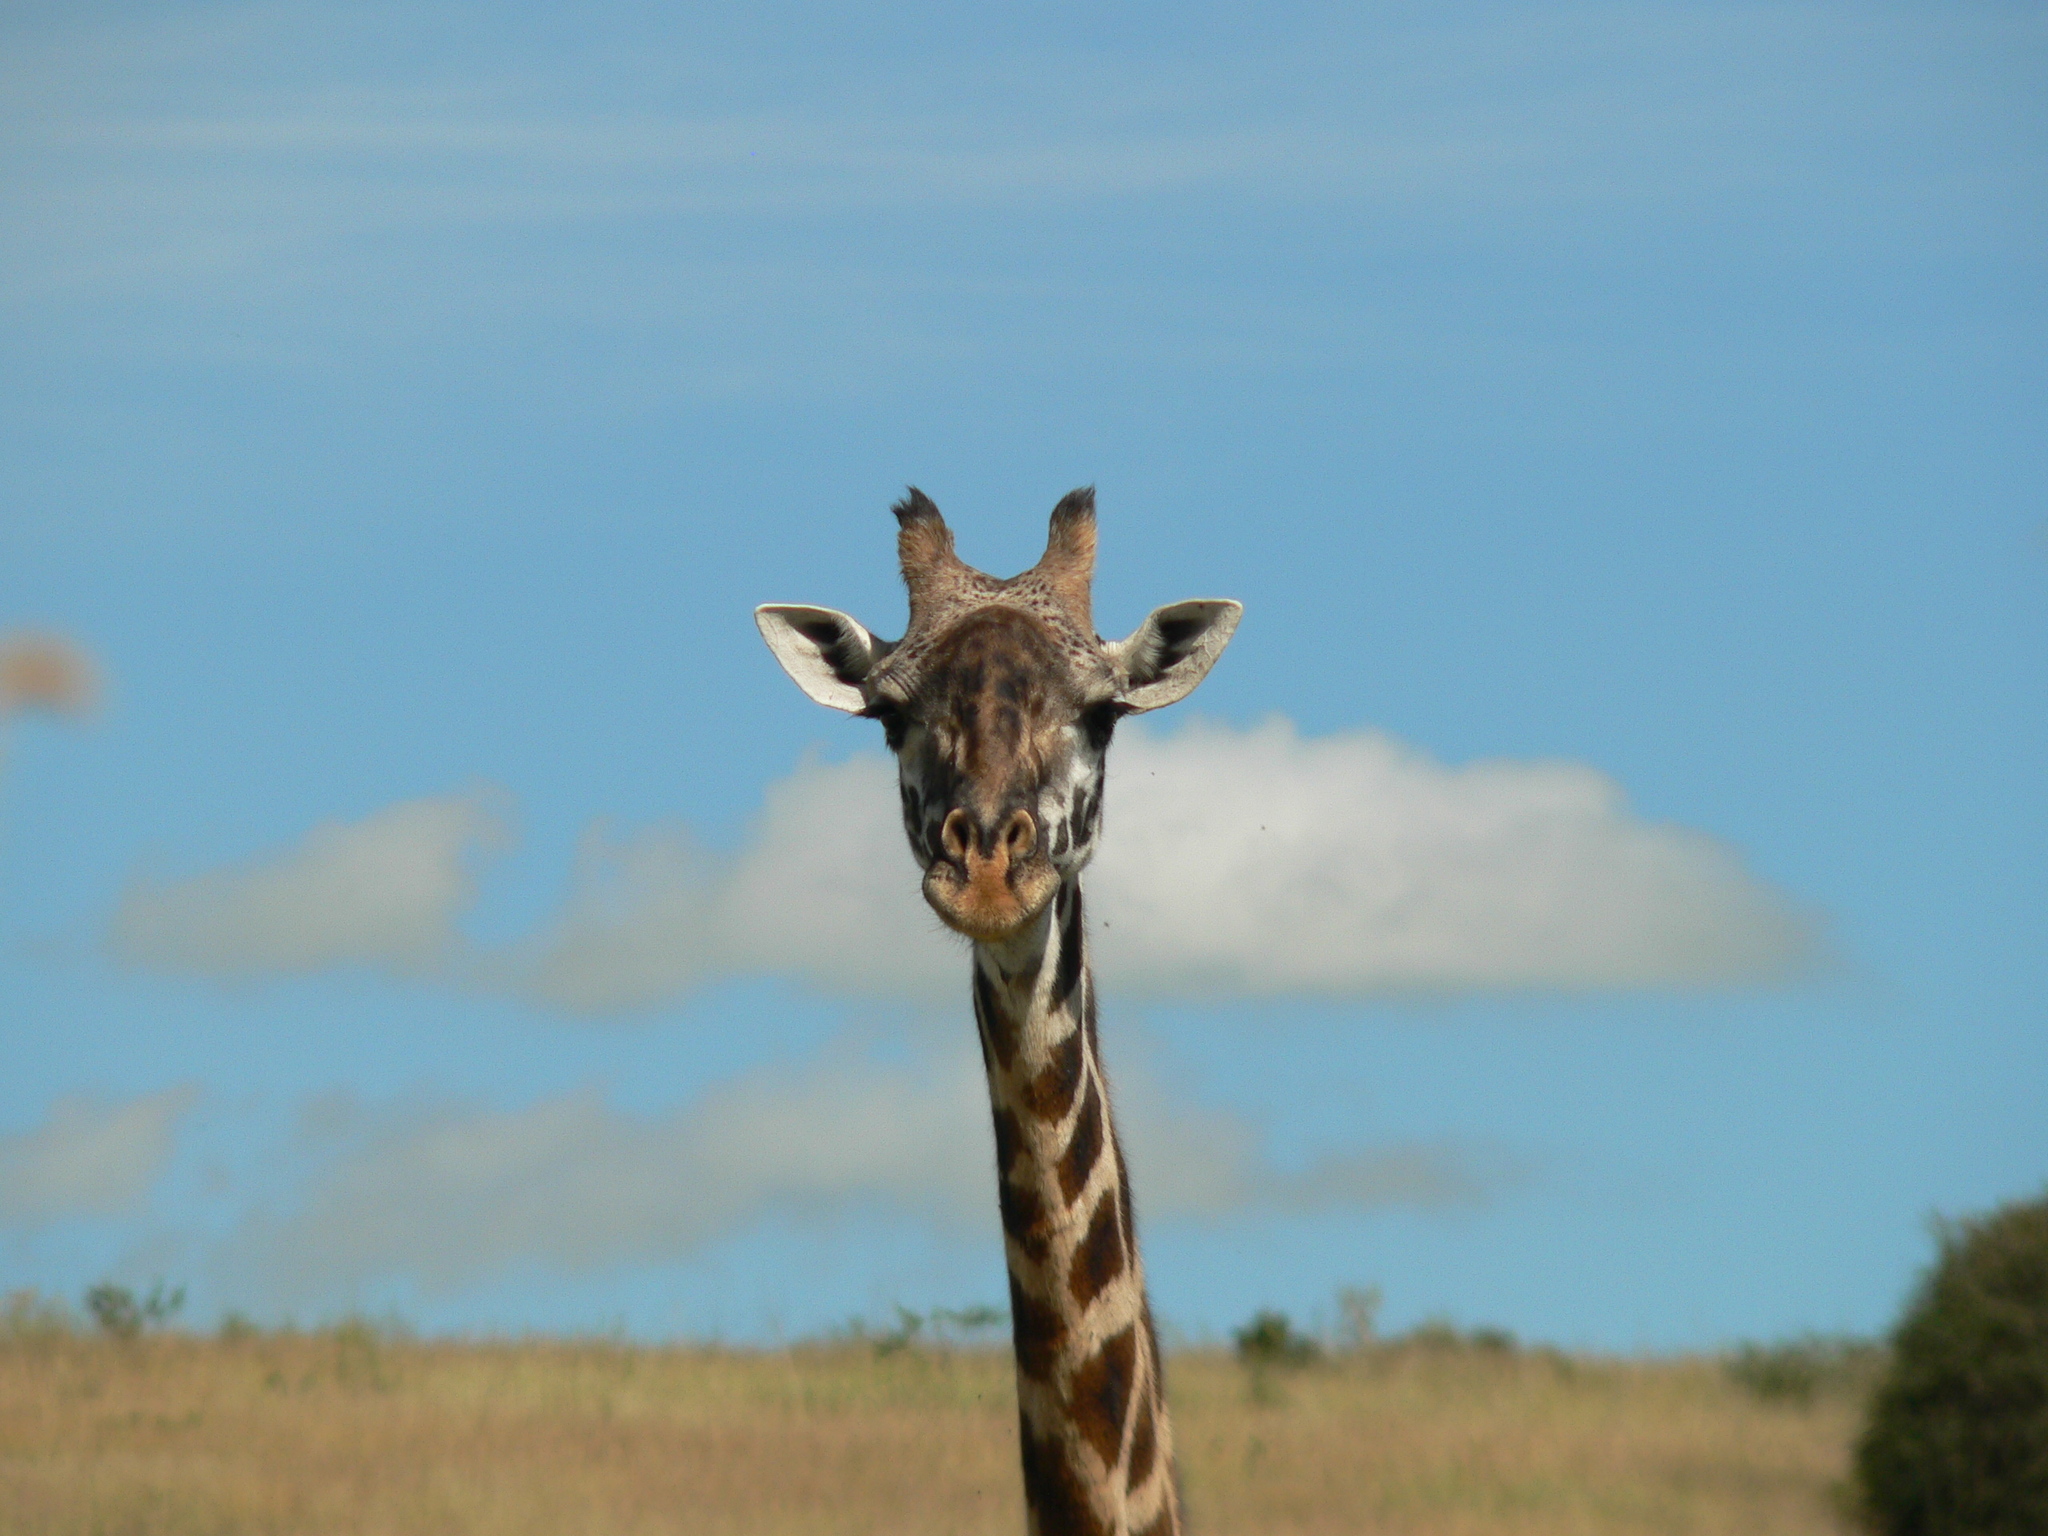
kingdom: Animalia
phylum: Chordata
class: Mammalia
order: Artiodactyla
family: Giraffidae
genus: Giraffa
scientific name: Giraffa tippelskirchi
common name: Masai giraffe
